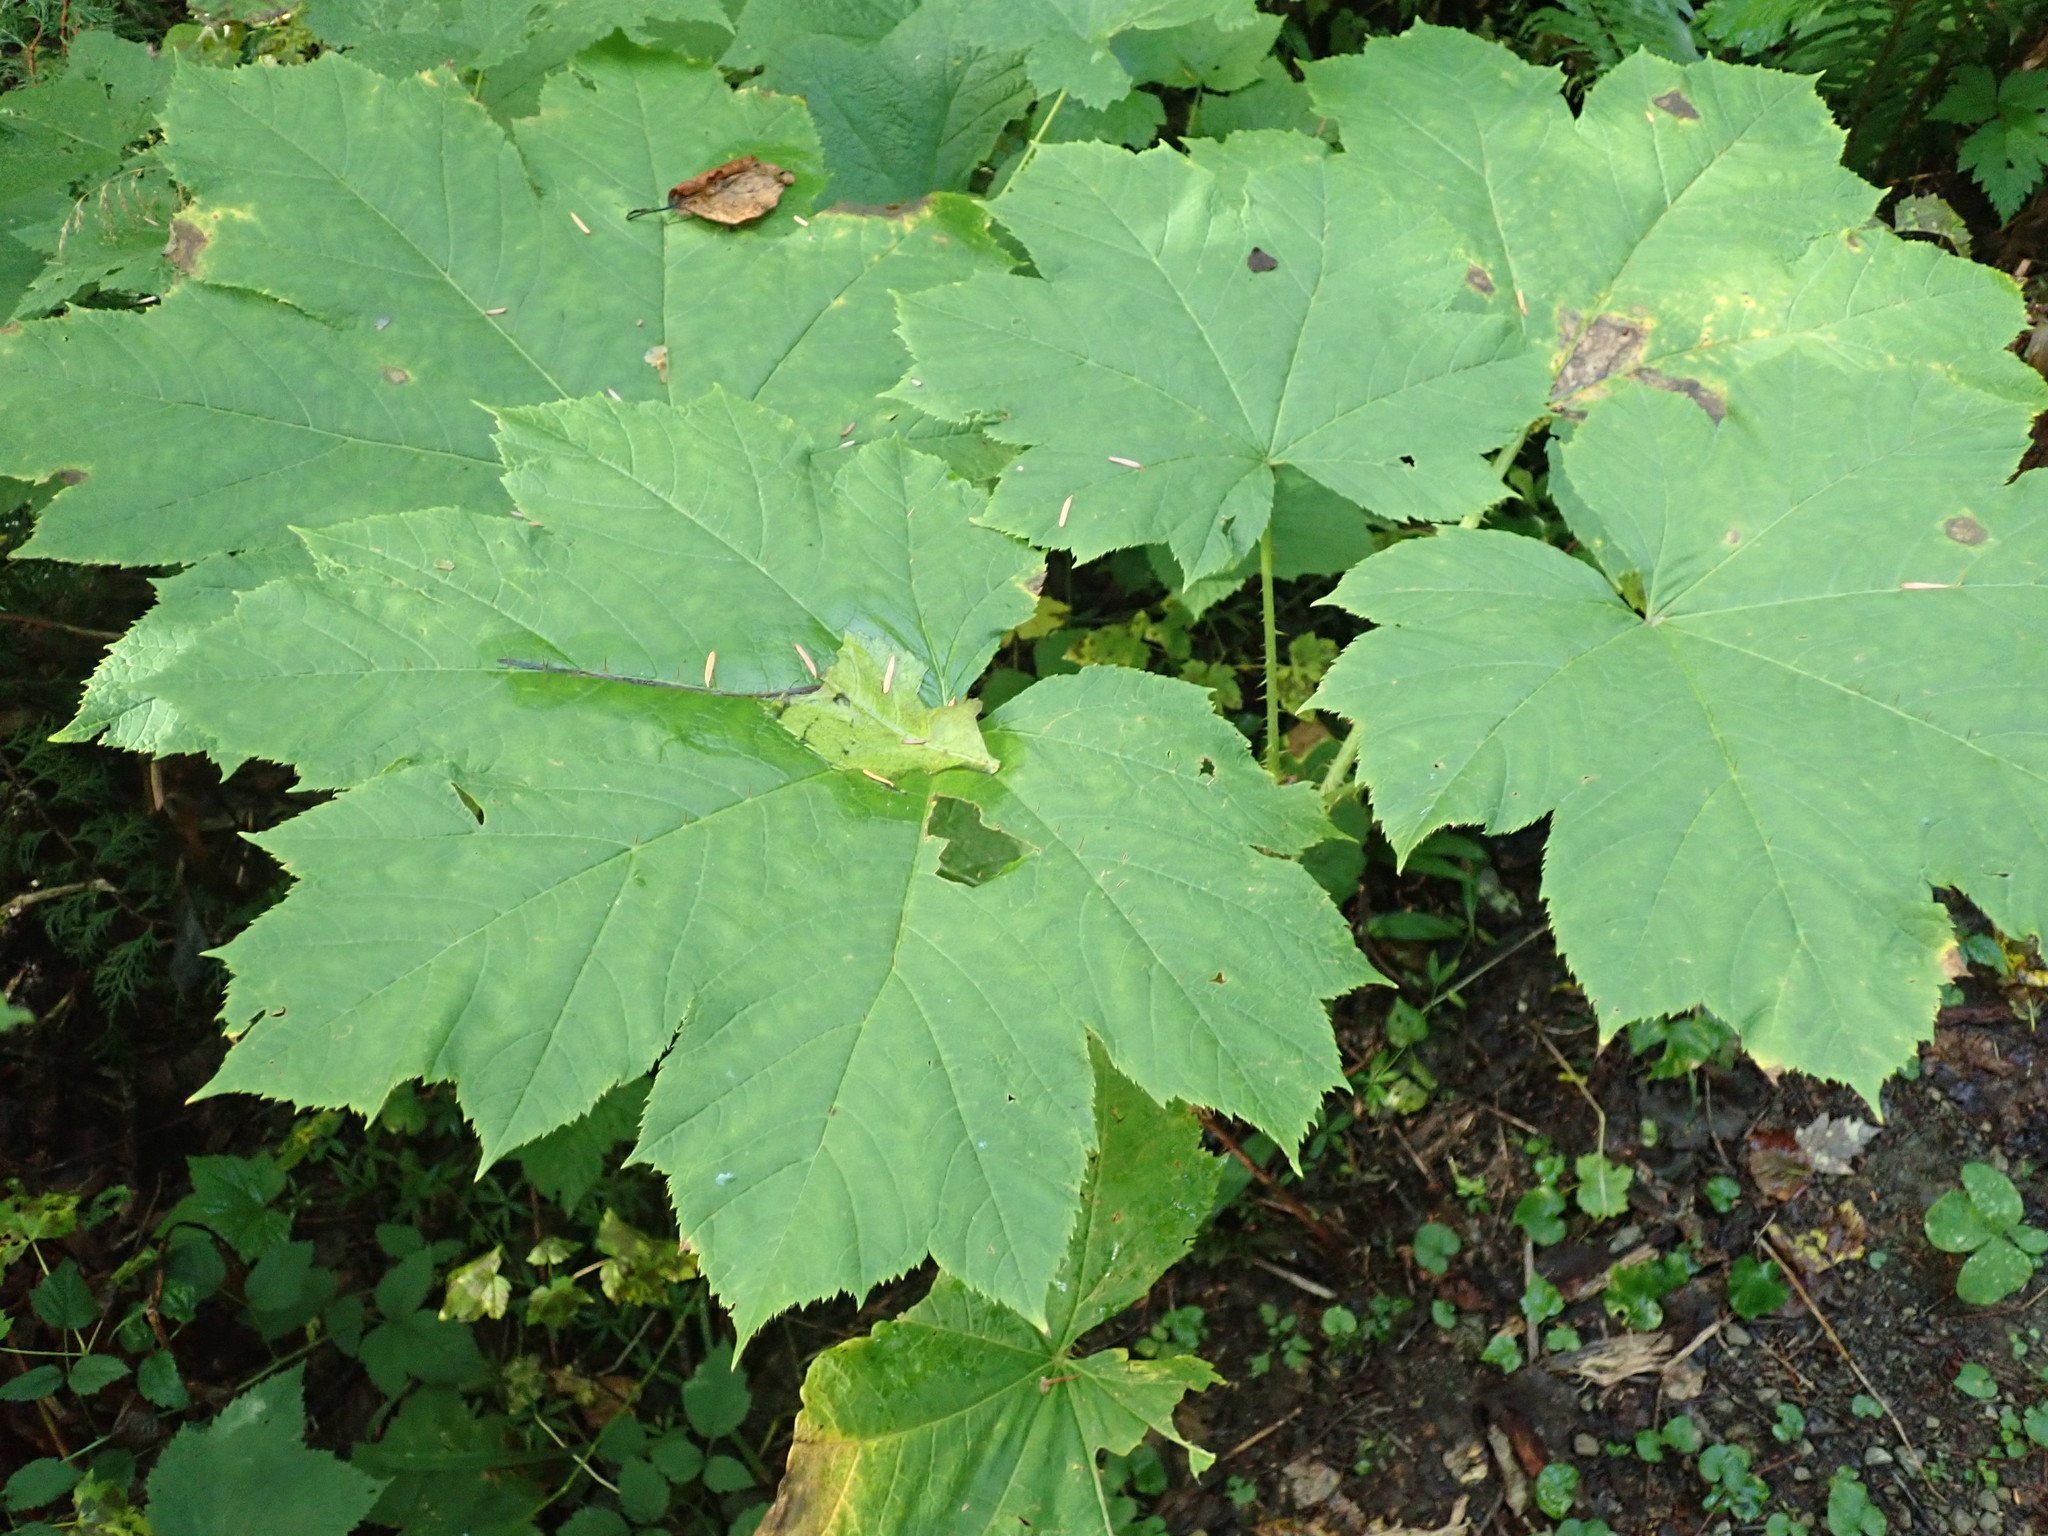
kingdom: Plantae
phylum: Tracheophyta
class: Magnoliopsida
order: Apiales
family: Araliaceae
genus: Oplopanax
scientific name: Oplopanax horridus
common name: Devil's walking-stick
